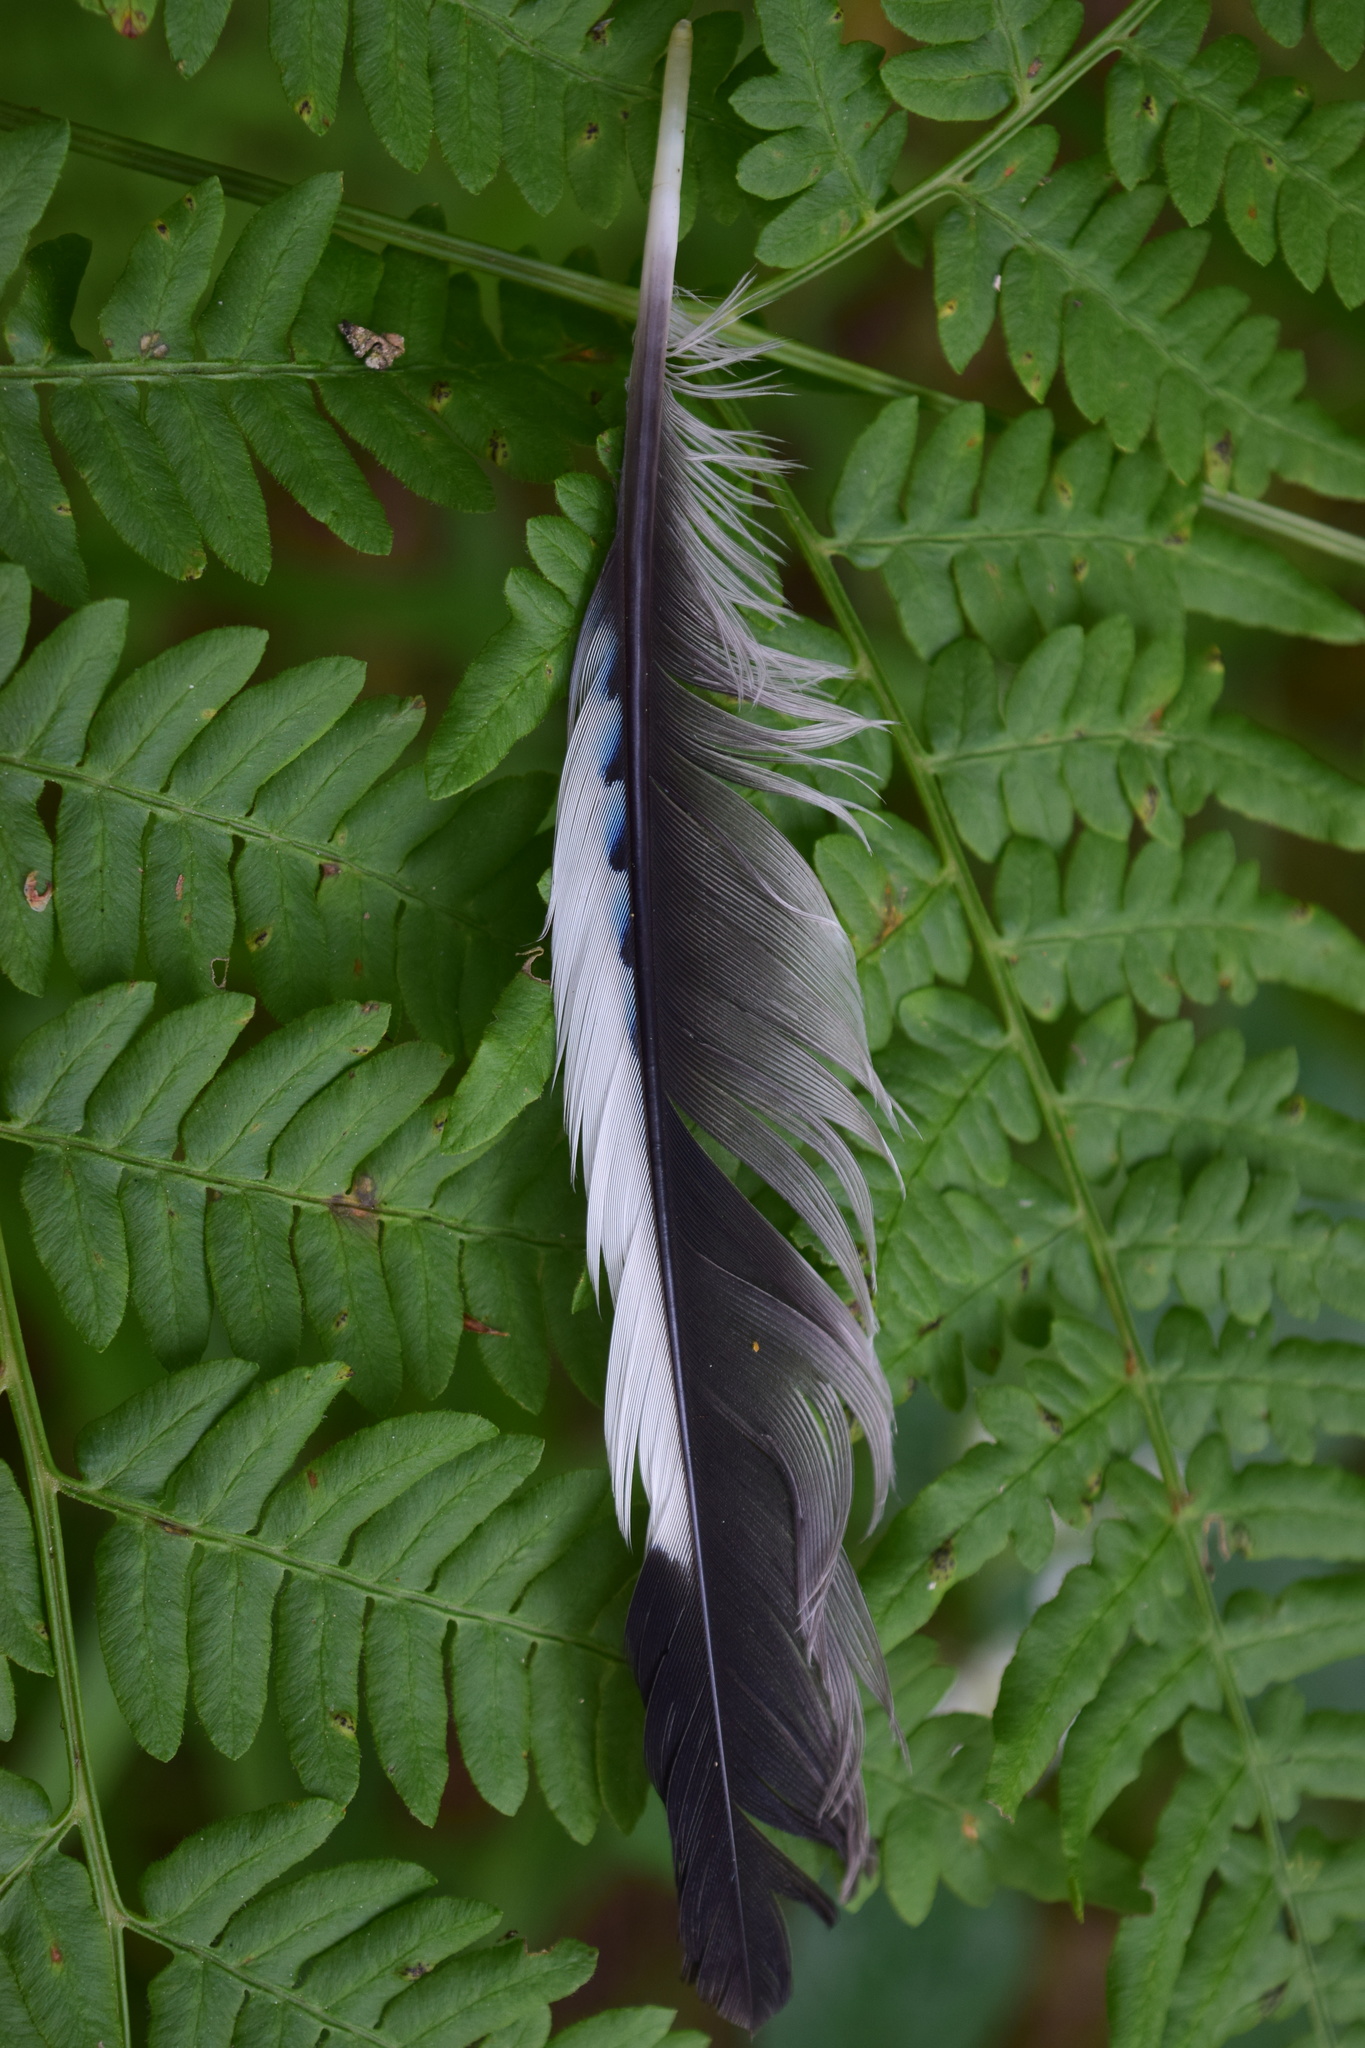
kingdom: Animalia
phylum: Chordata
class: Aves
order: Passeriformes
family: Corvidae
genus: Garrulus
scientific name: Garrulus glandarius
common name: Eurasian jay
